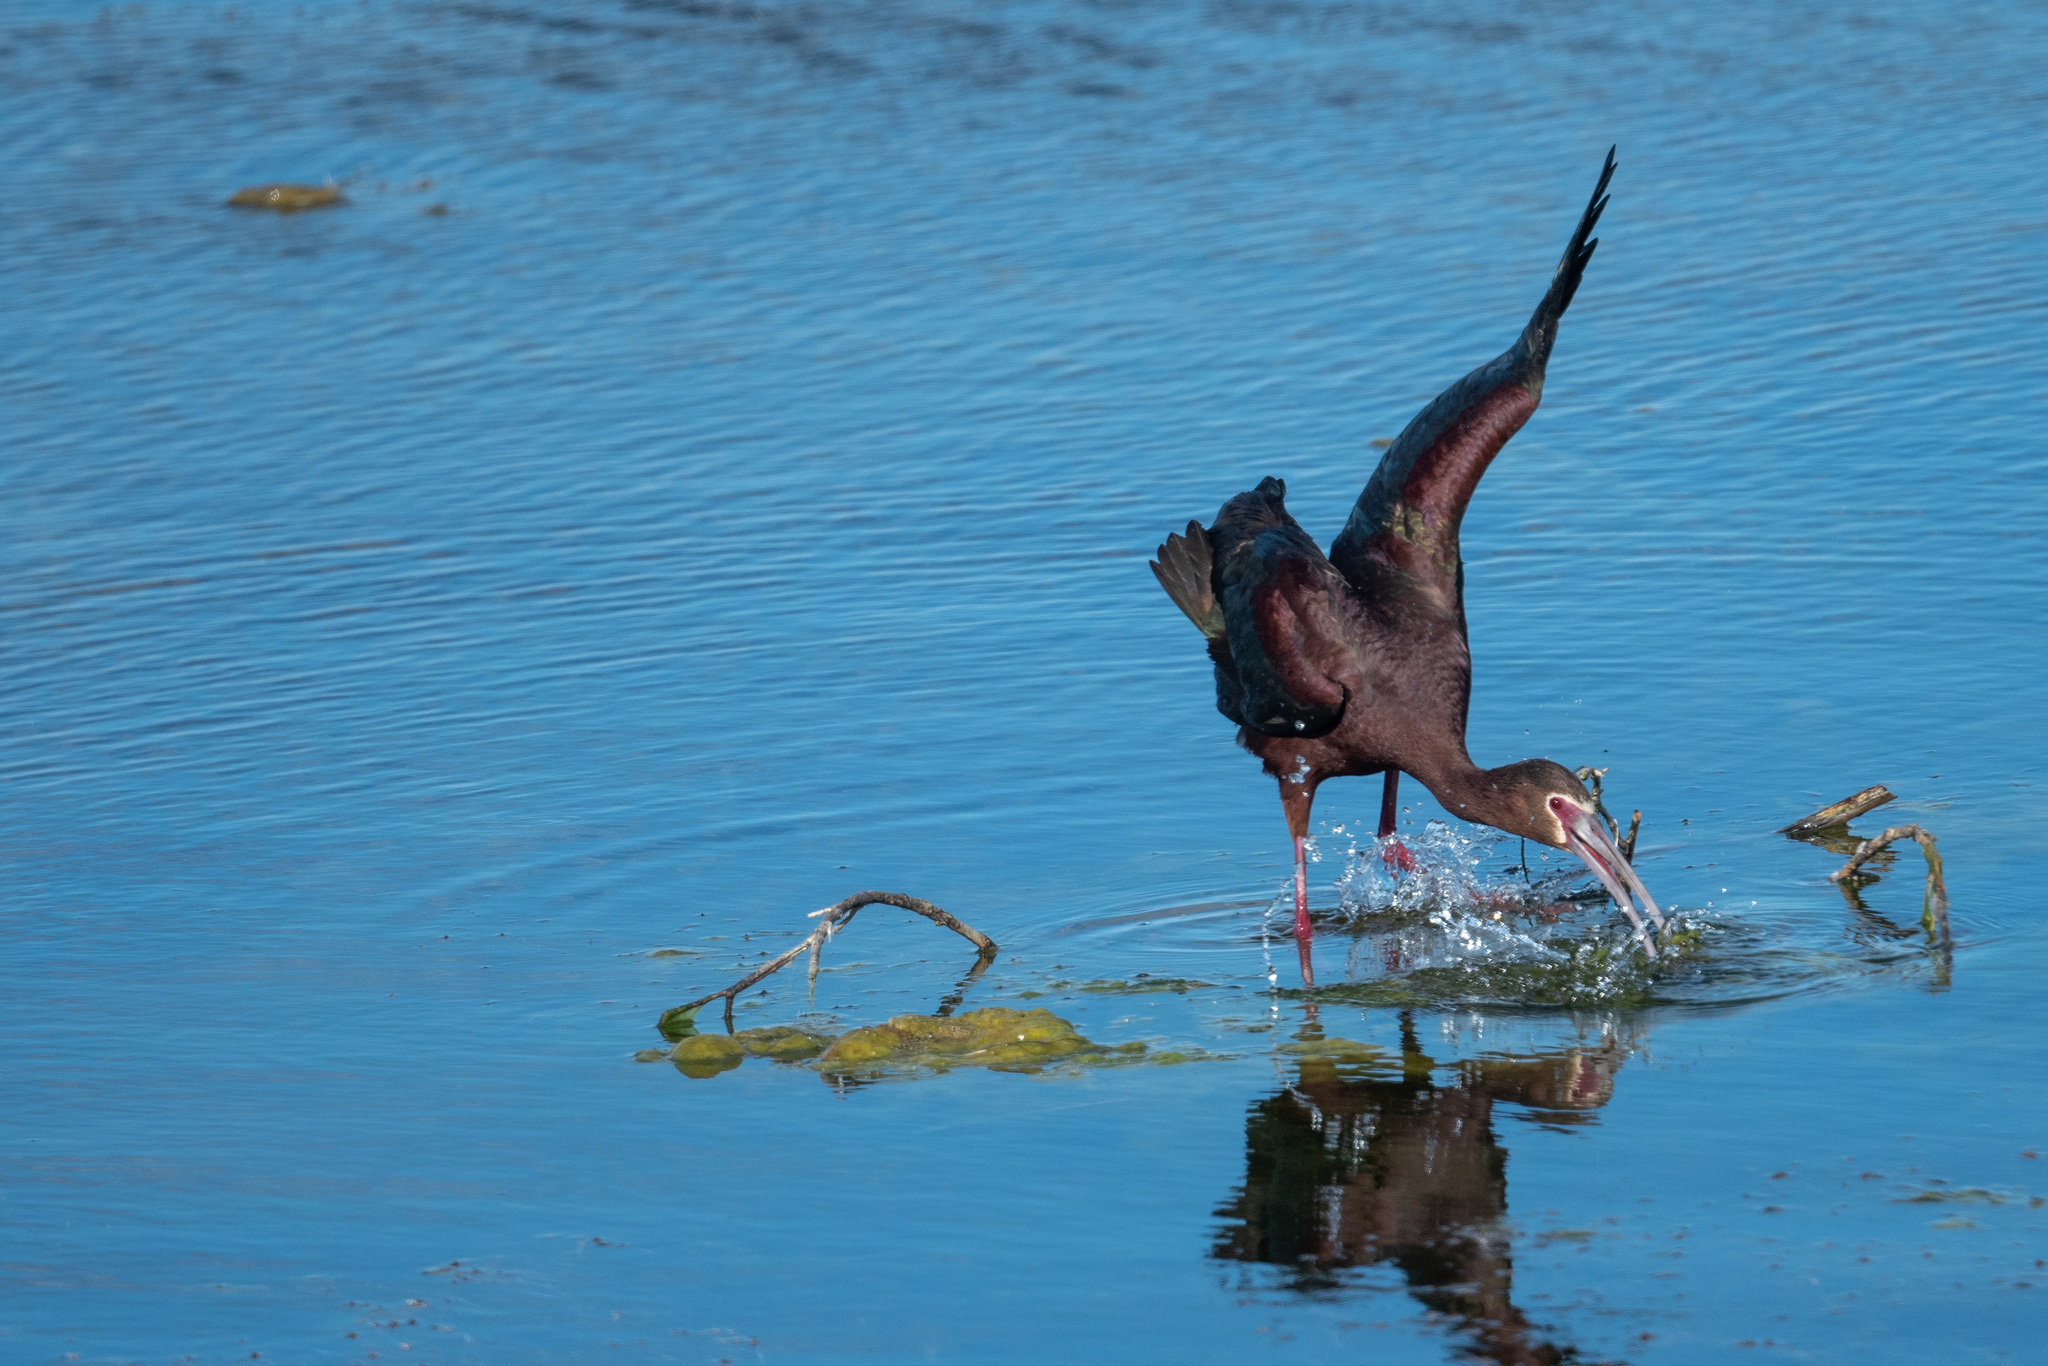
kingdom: Animalia
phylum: Chordata
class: Aves
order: Pelecaniformes
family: Threskiornithidae
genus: Plegadis
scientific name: Plegadis chihi
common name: White-faced ibis
